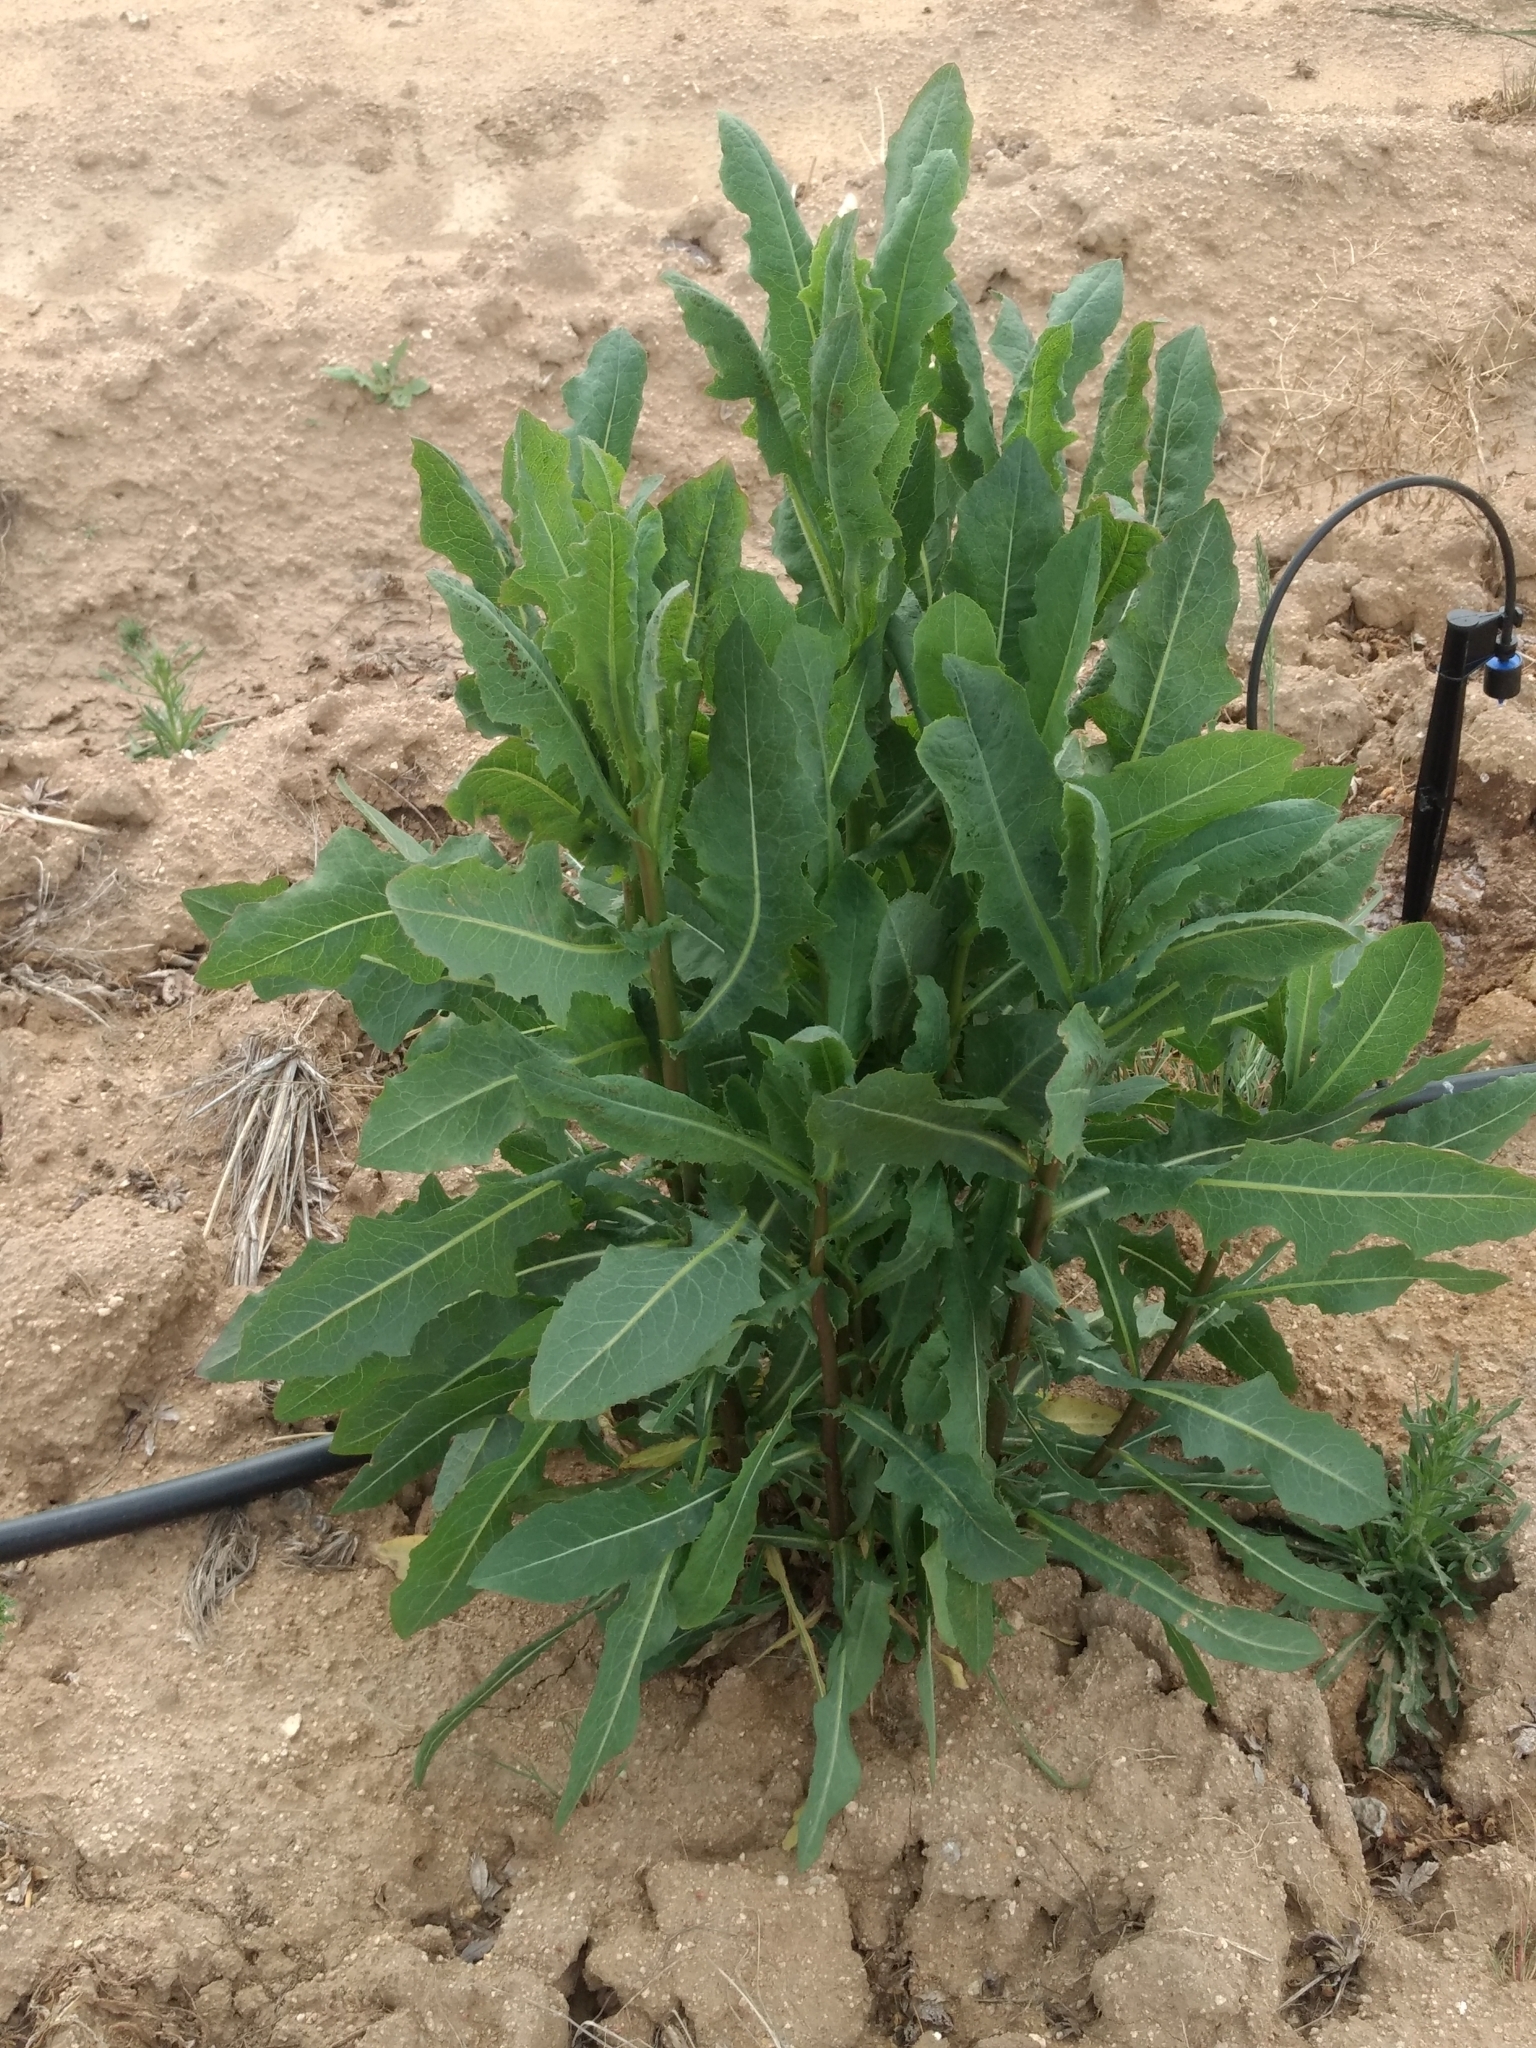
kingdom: Plantae
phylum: Tracheophyta
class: Magnoliopsida
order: Asterales
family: Asteraceae
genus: Lactuca
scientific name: Lactuca serriola
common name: Prickly lettuce
